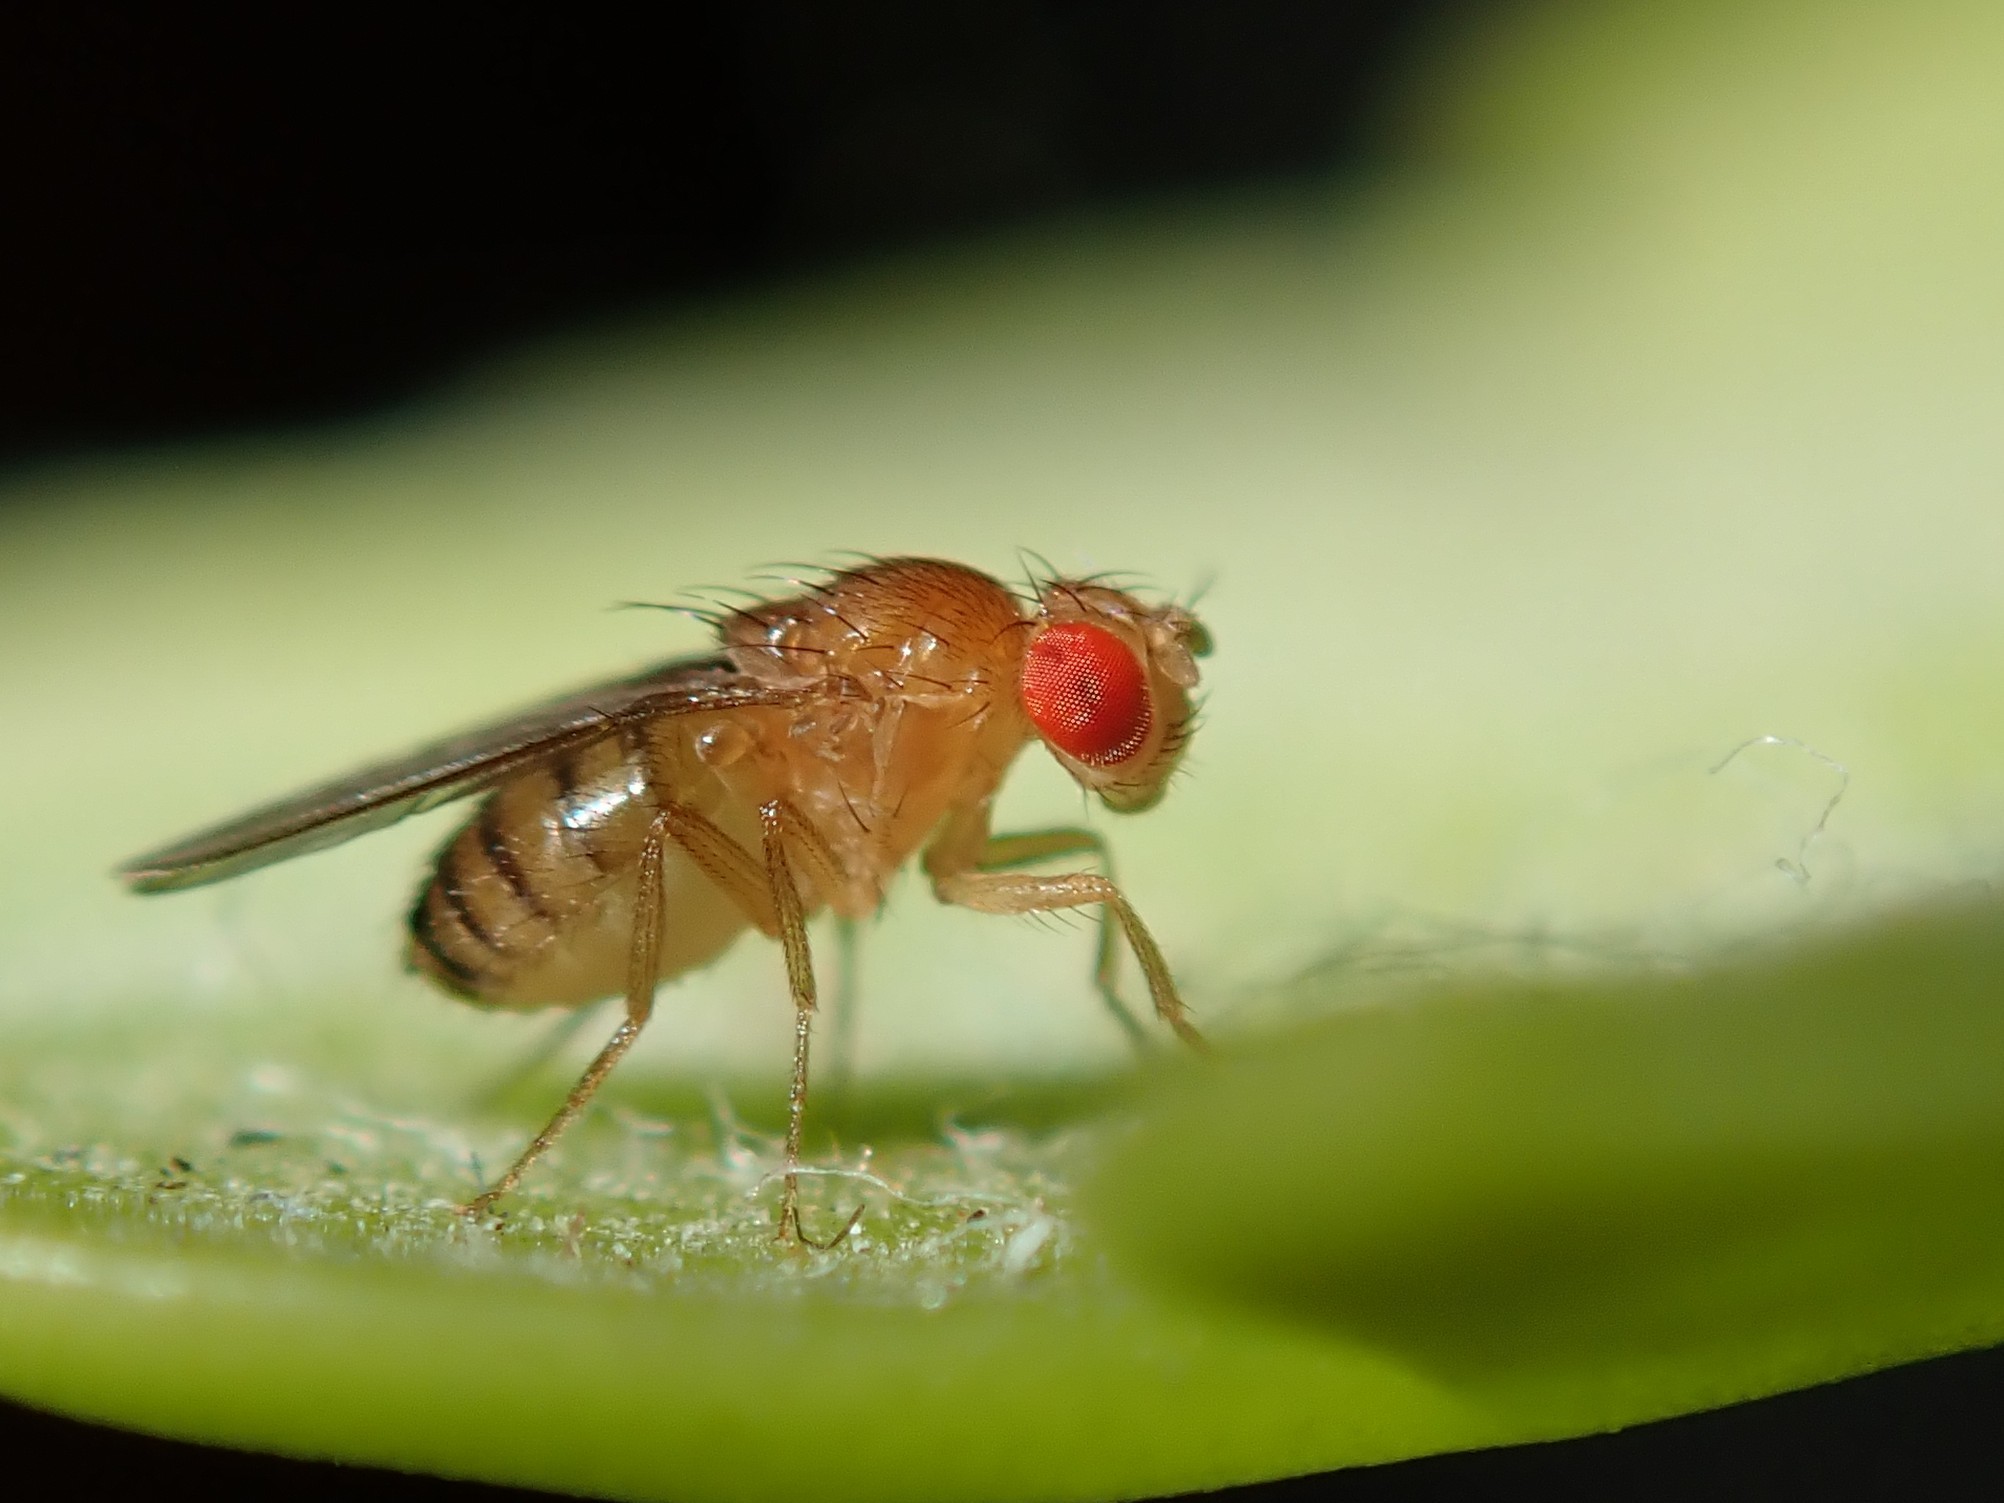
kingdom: Animalia
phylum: Arthropoda
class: Insecta
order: Diptera
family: Drosophilidae
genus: Drosophila
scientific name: Drosophila melanogaster
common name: Pomace fly
